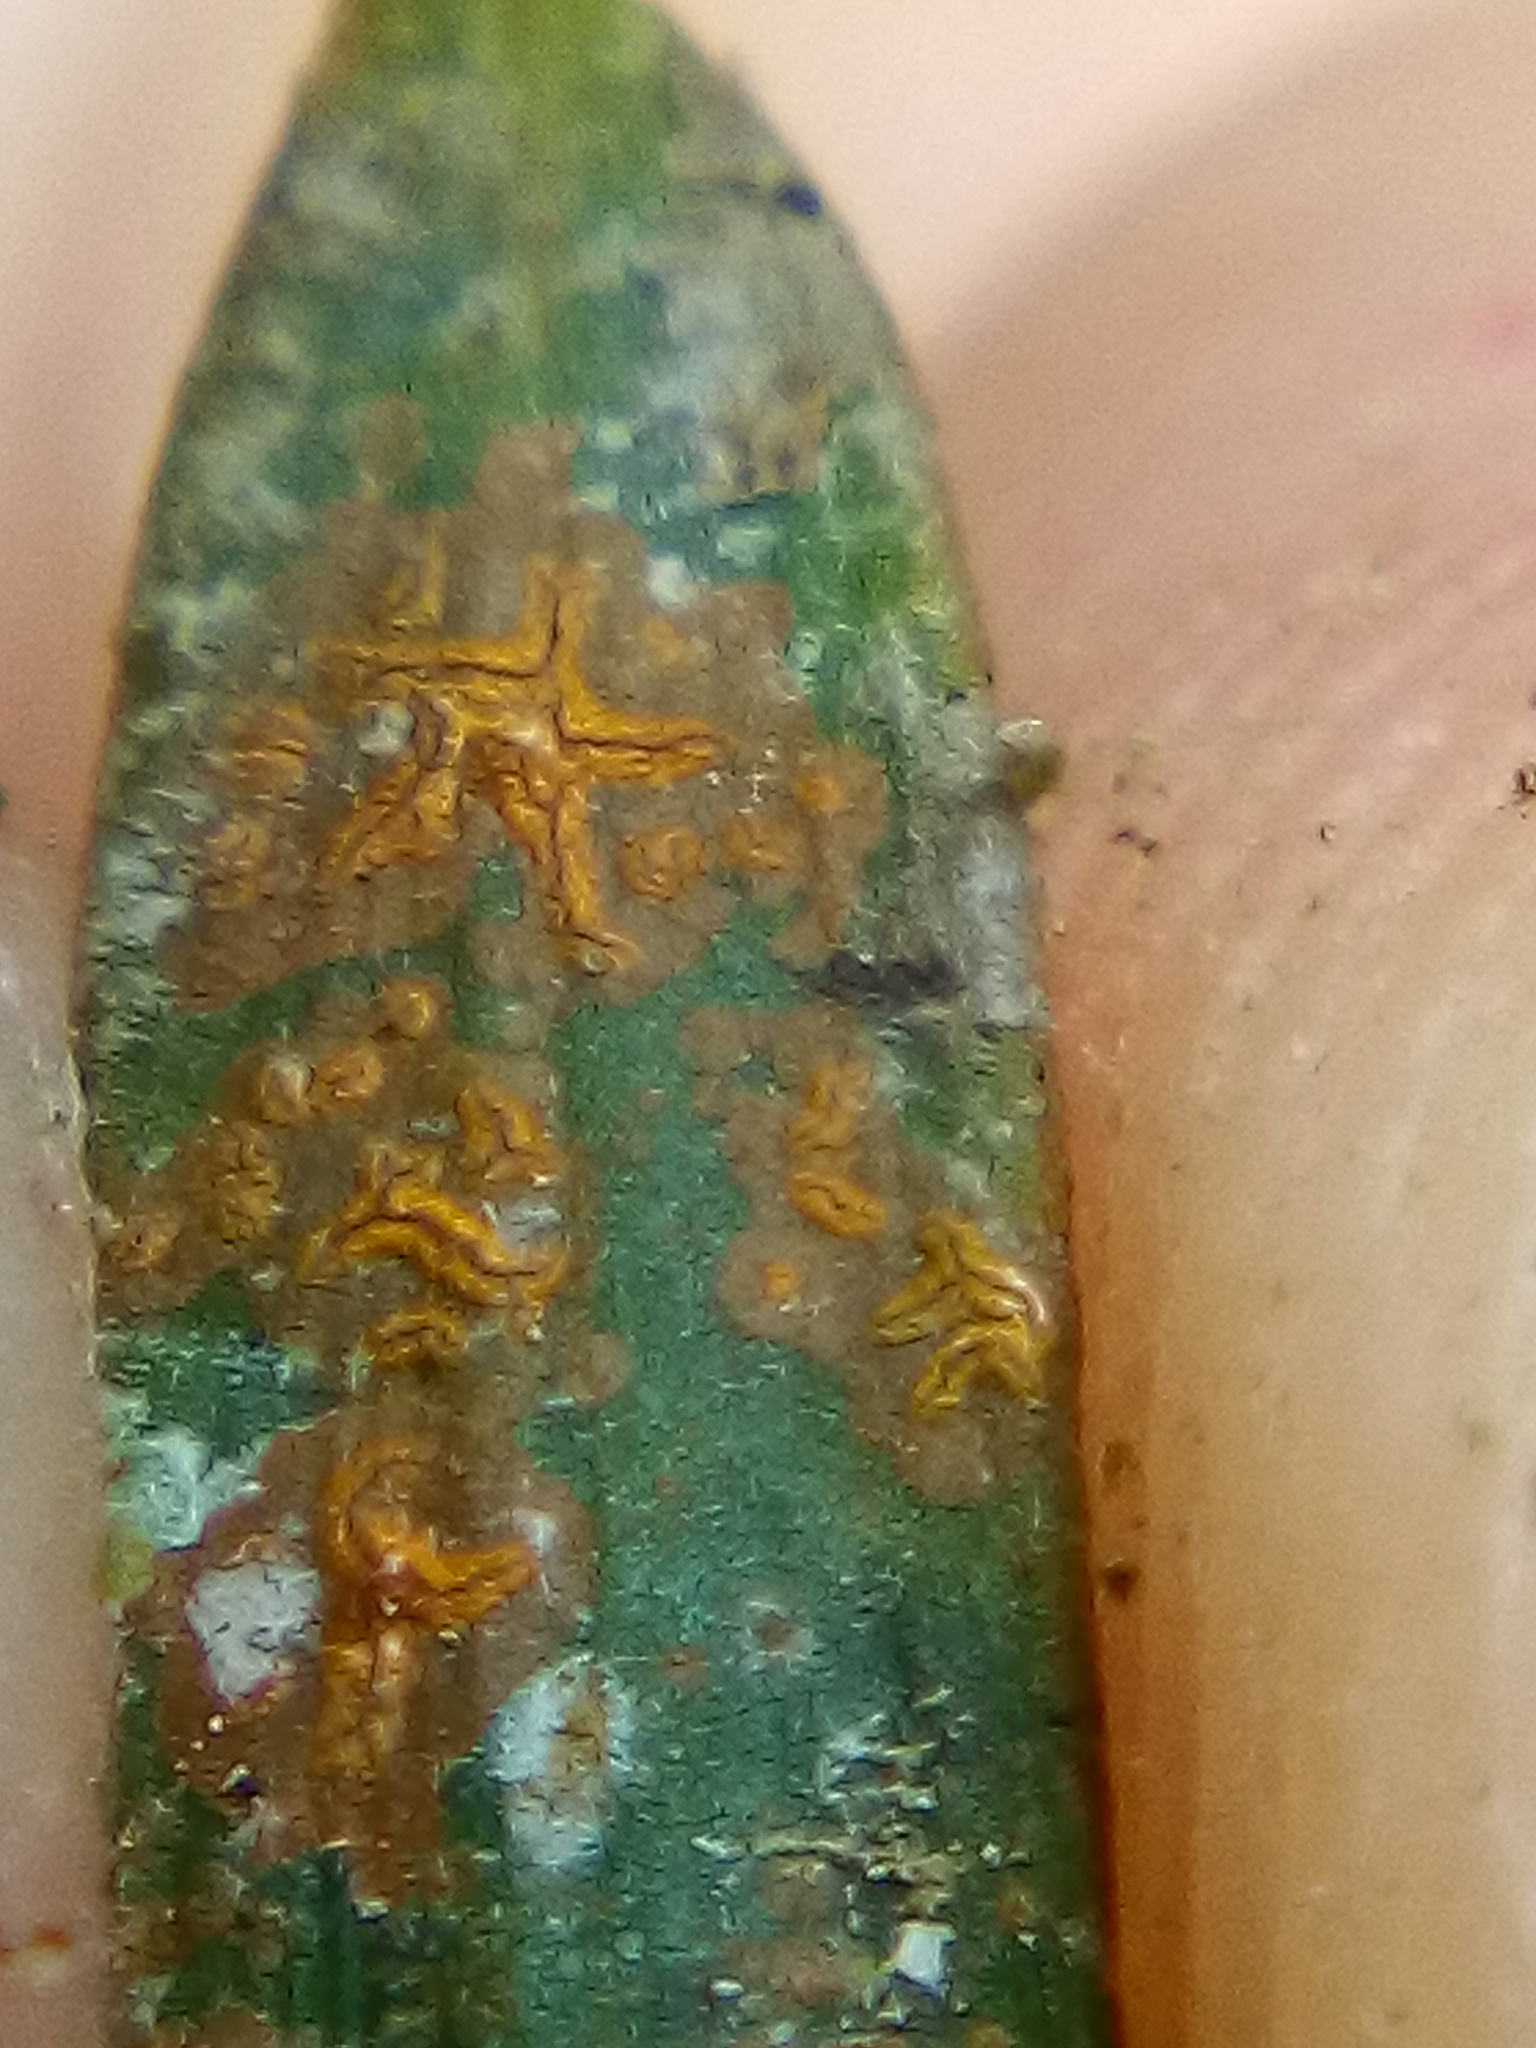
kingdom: Fungi
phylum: Ascomycota
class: Arthoniomycetes
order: Arthoniales
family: Roccellaceae
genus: Enterographa
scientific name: Enterographa bella
